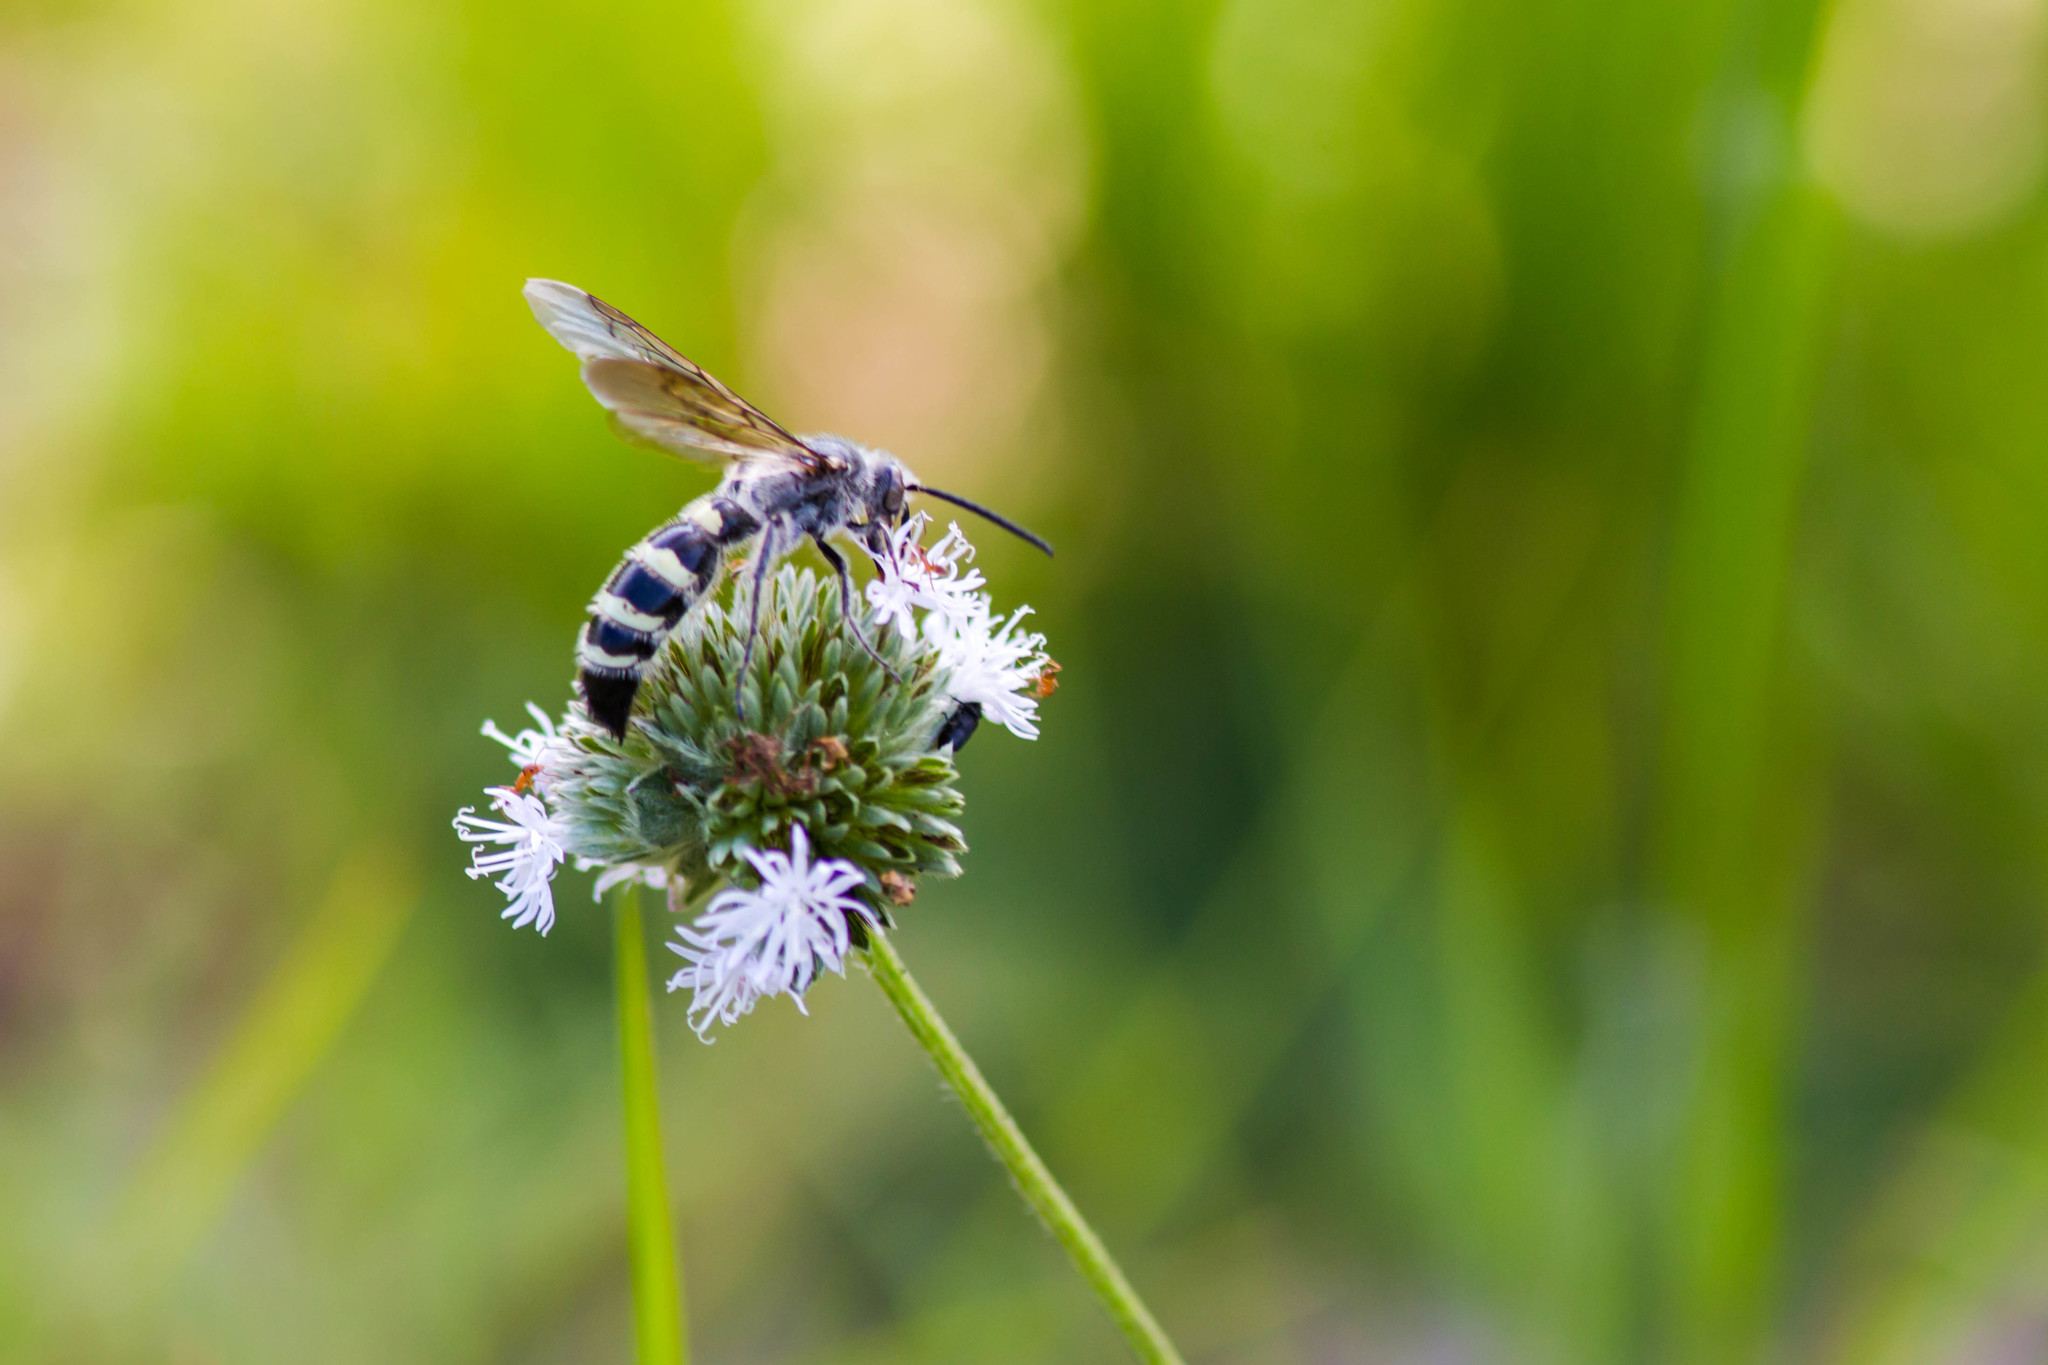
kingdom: Animalia
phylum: Arthropoda
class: Insecta
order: Hymenoptera
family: Scoliidae
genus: Dielis
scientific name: Dielis
